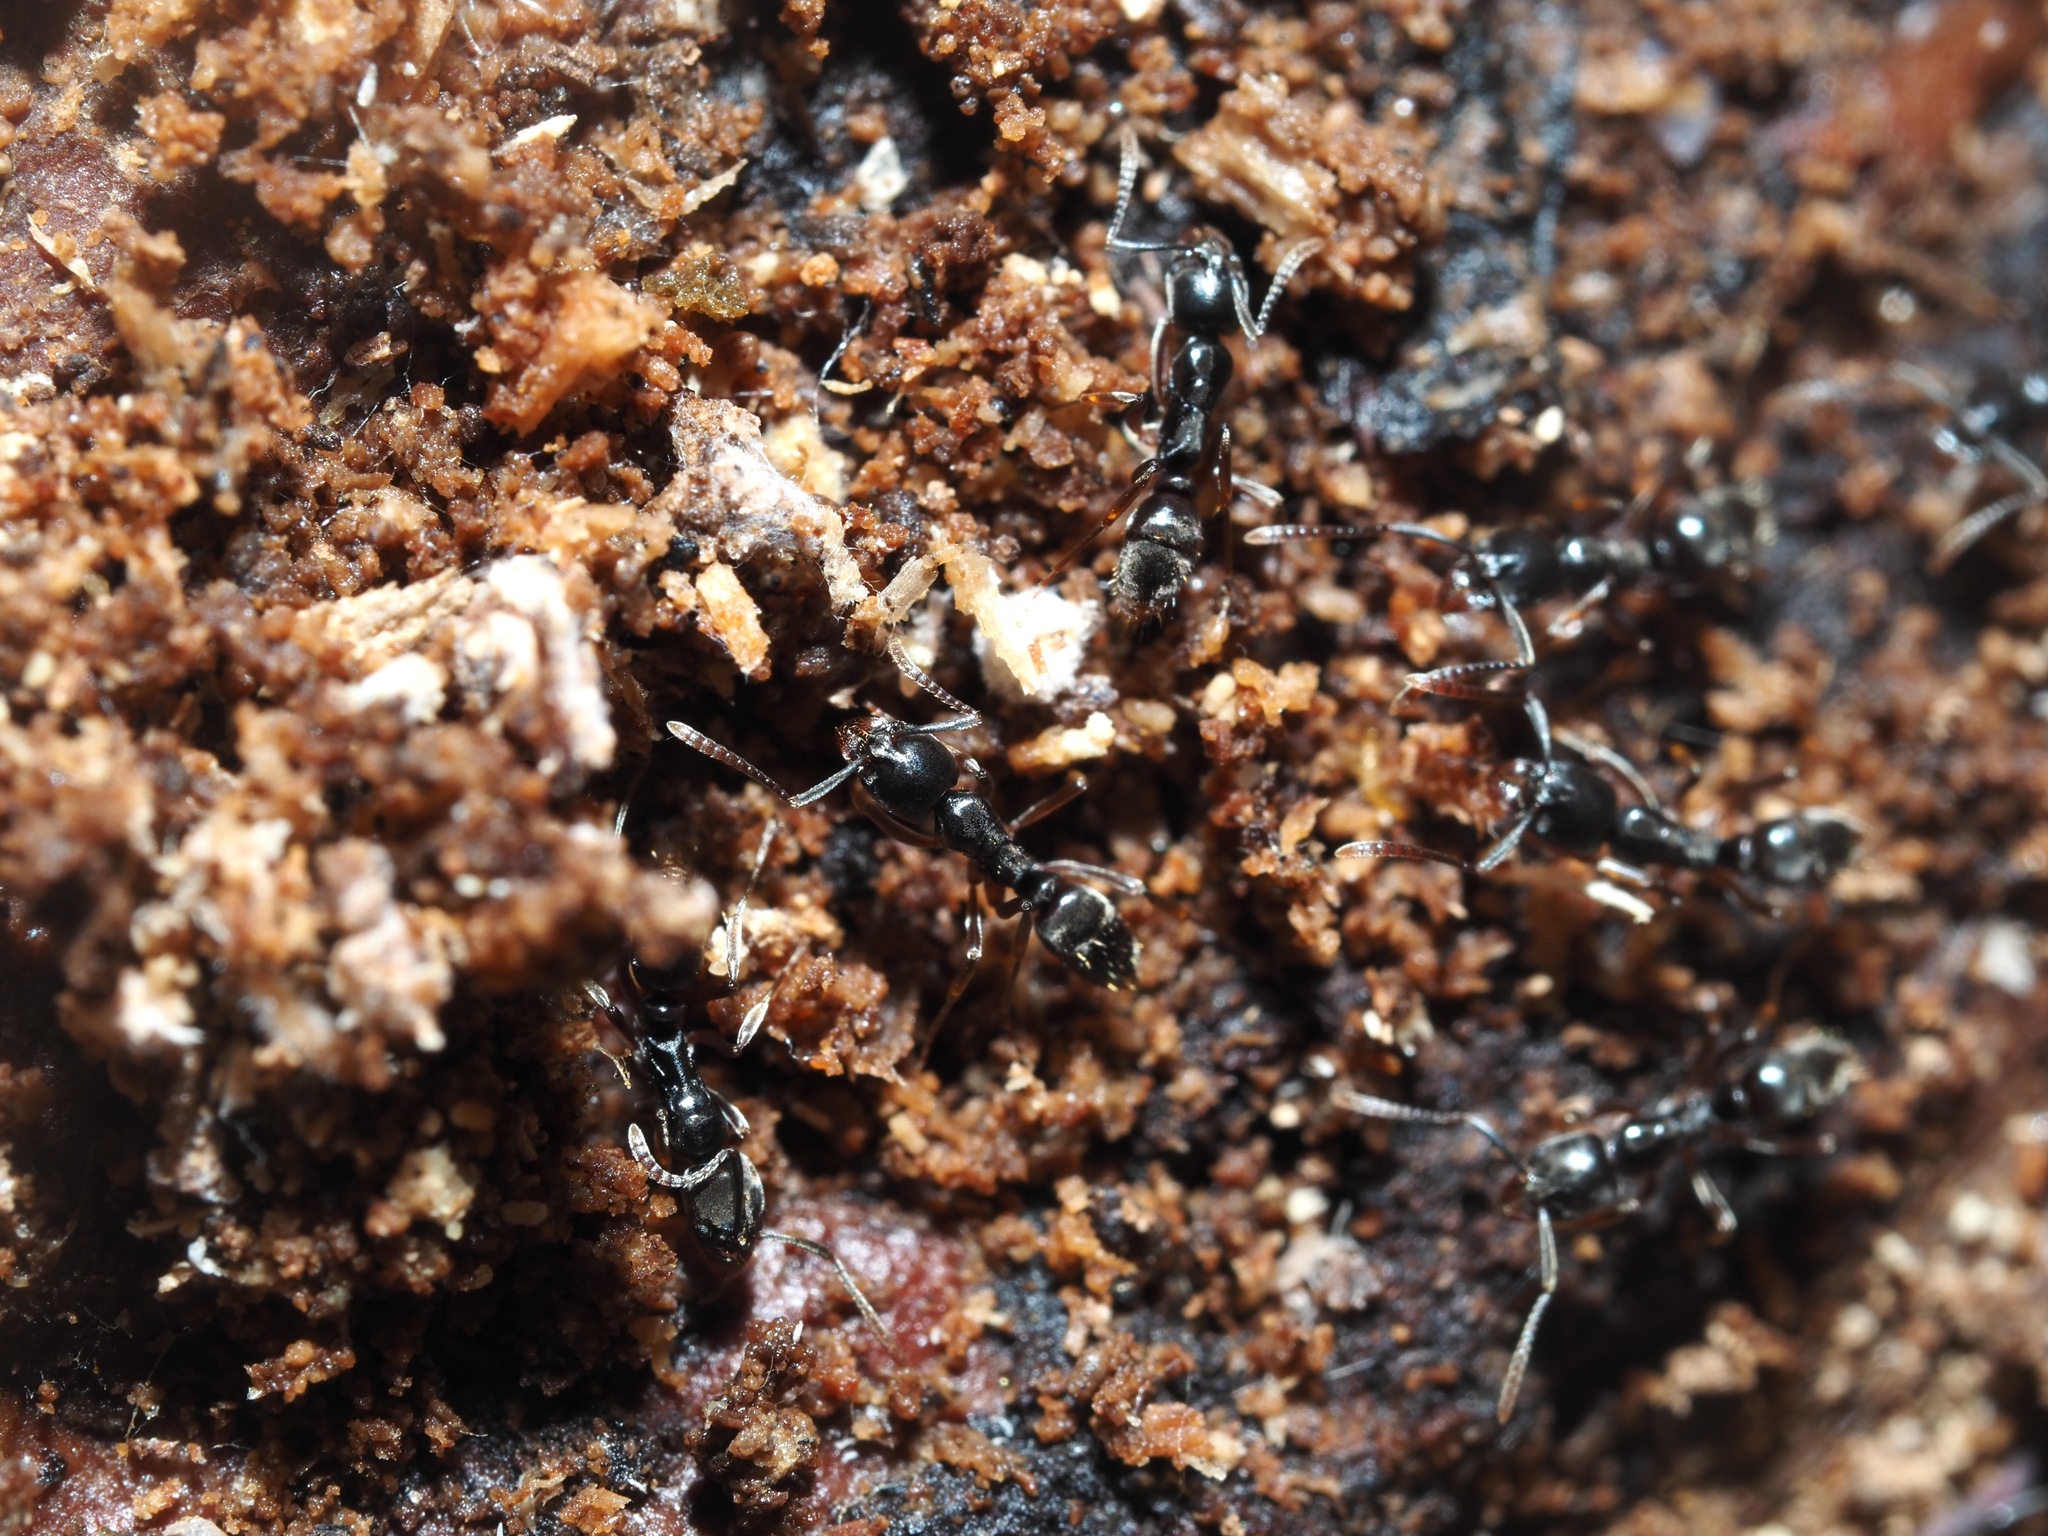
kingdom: Animalia
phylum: Arthropoda
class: Insecta
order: Hymenoptera
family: Formicidae
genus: Pachycondyla
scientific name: Pachycondyla chinensis
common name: Asian needle ant
